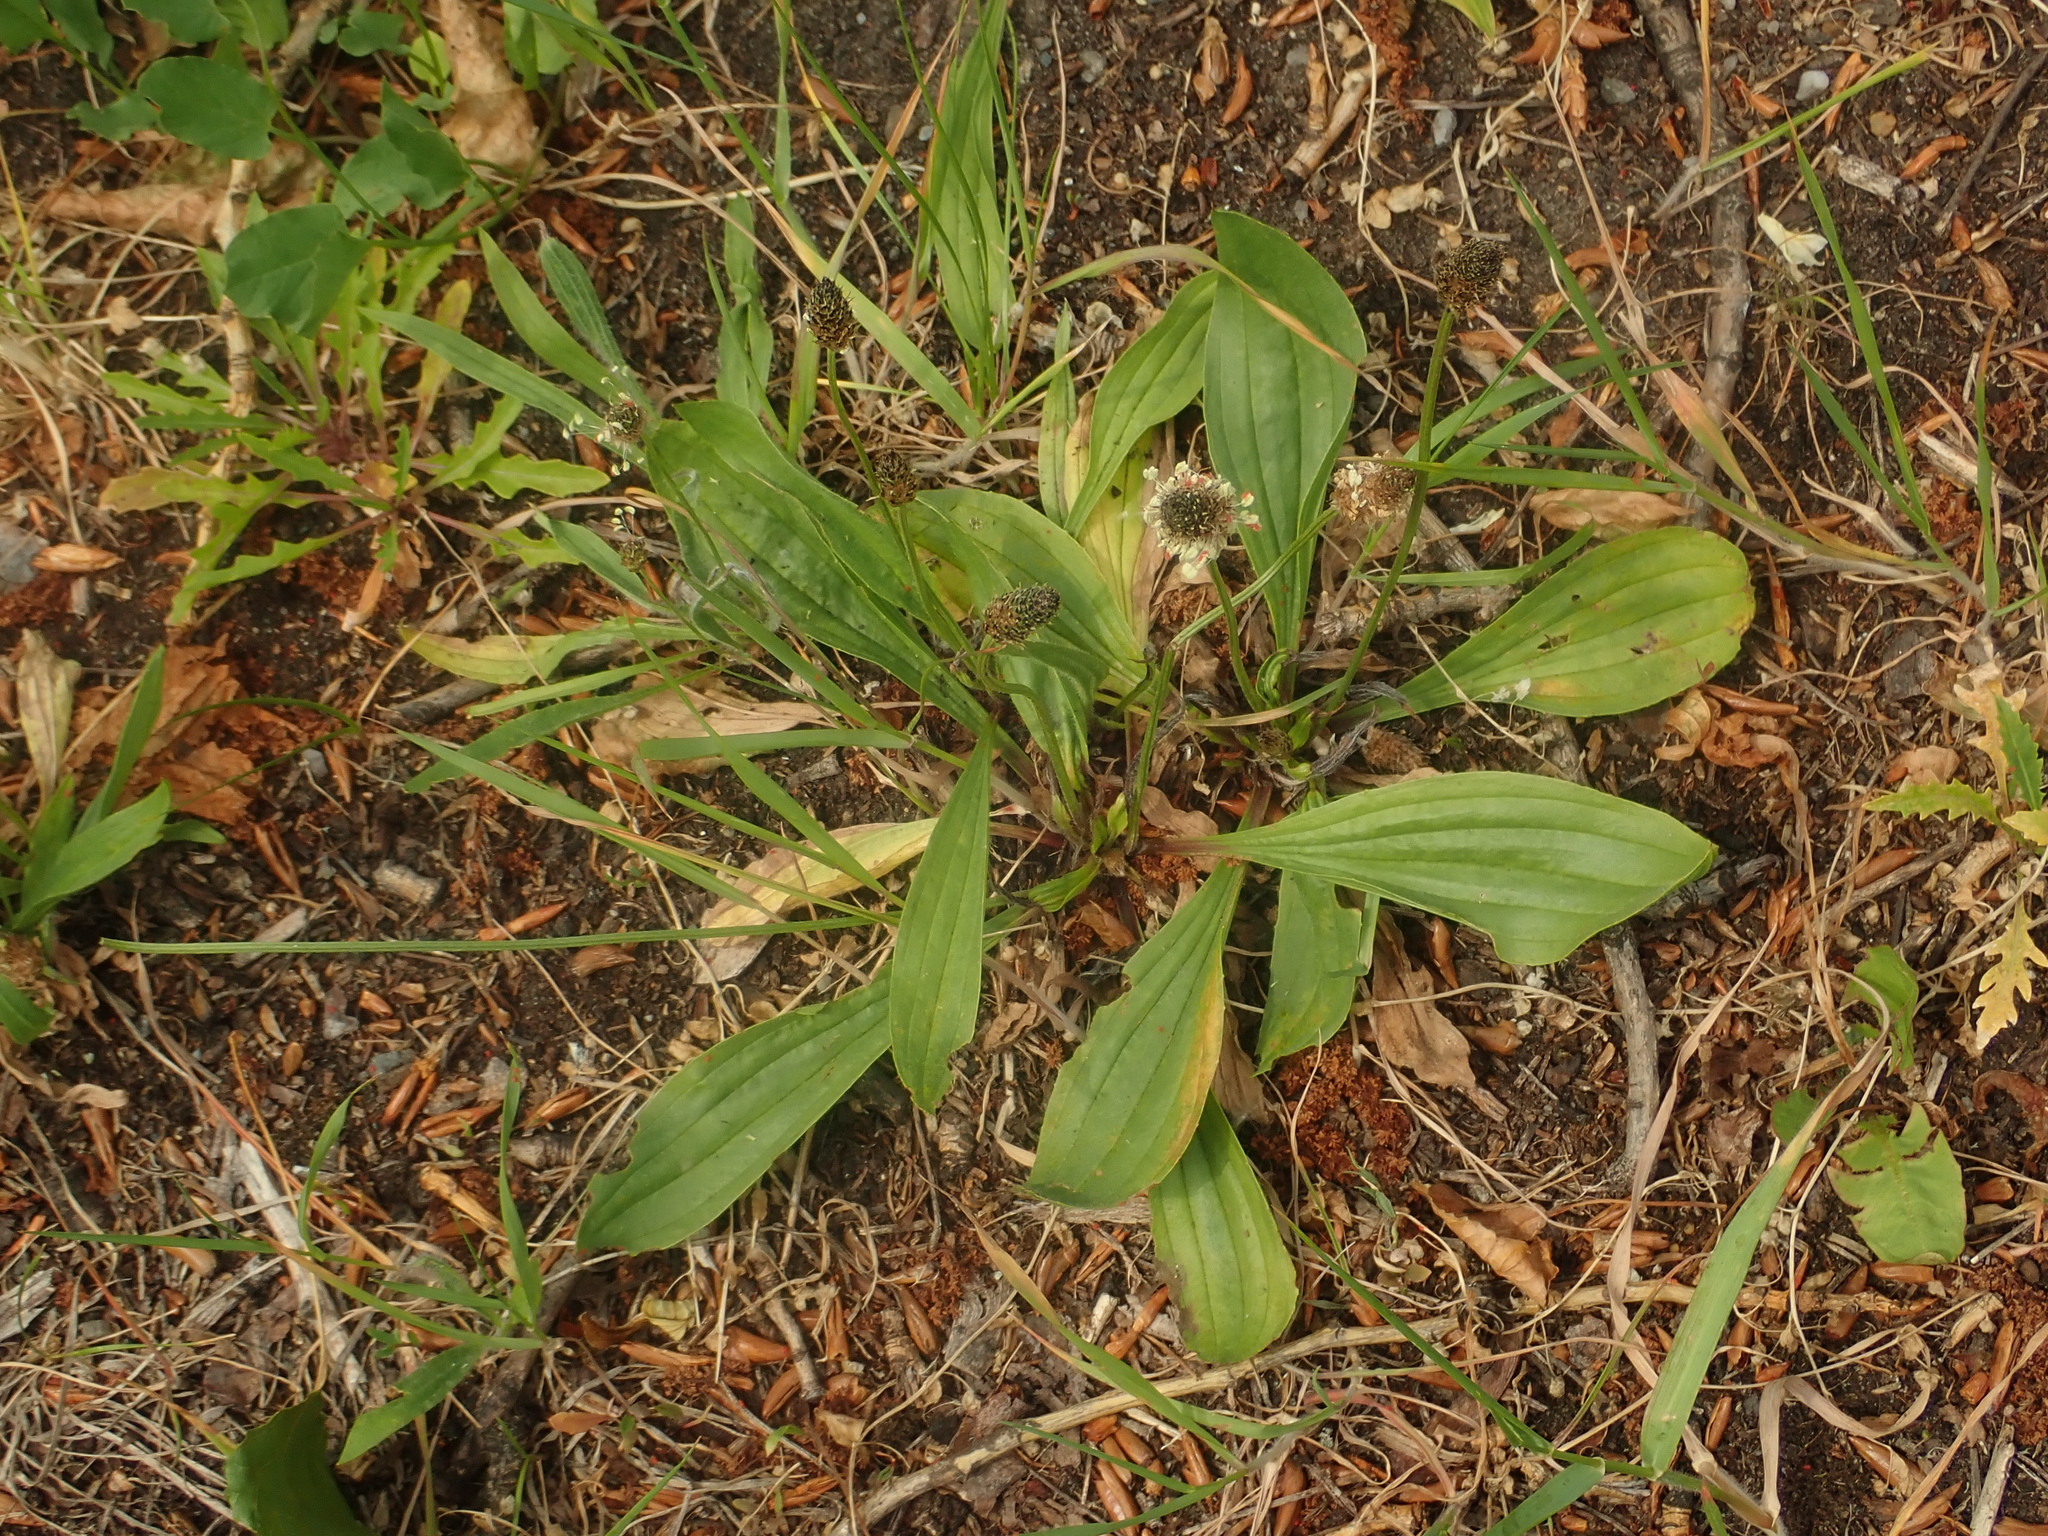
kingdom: Plantae
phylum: Tracheophyta
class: Magnoliopsida
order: Lamiales
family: Plantaginaceae
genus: Plantago
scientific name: Plantago lanceolata
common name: Ribwort plantain
